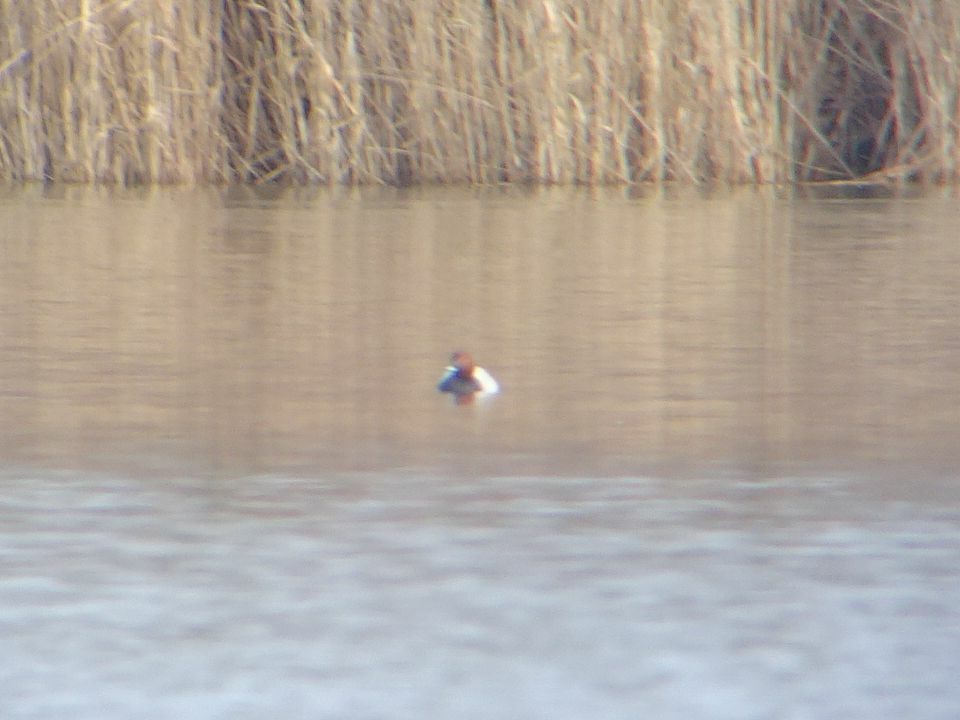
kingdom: Animalia
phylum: Chordata
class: Aves
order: Anseriformes
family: Anatidae
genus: Aythya
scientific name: Aythya ferina
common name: Common pochard
